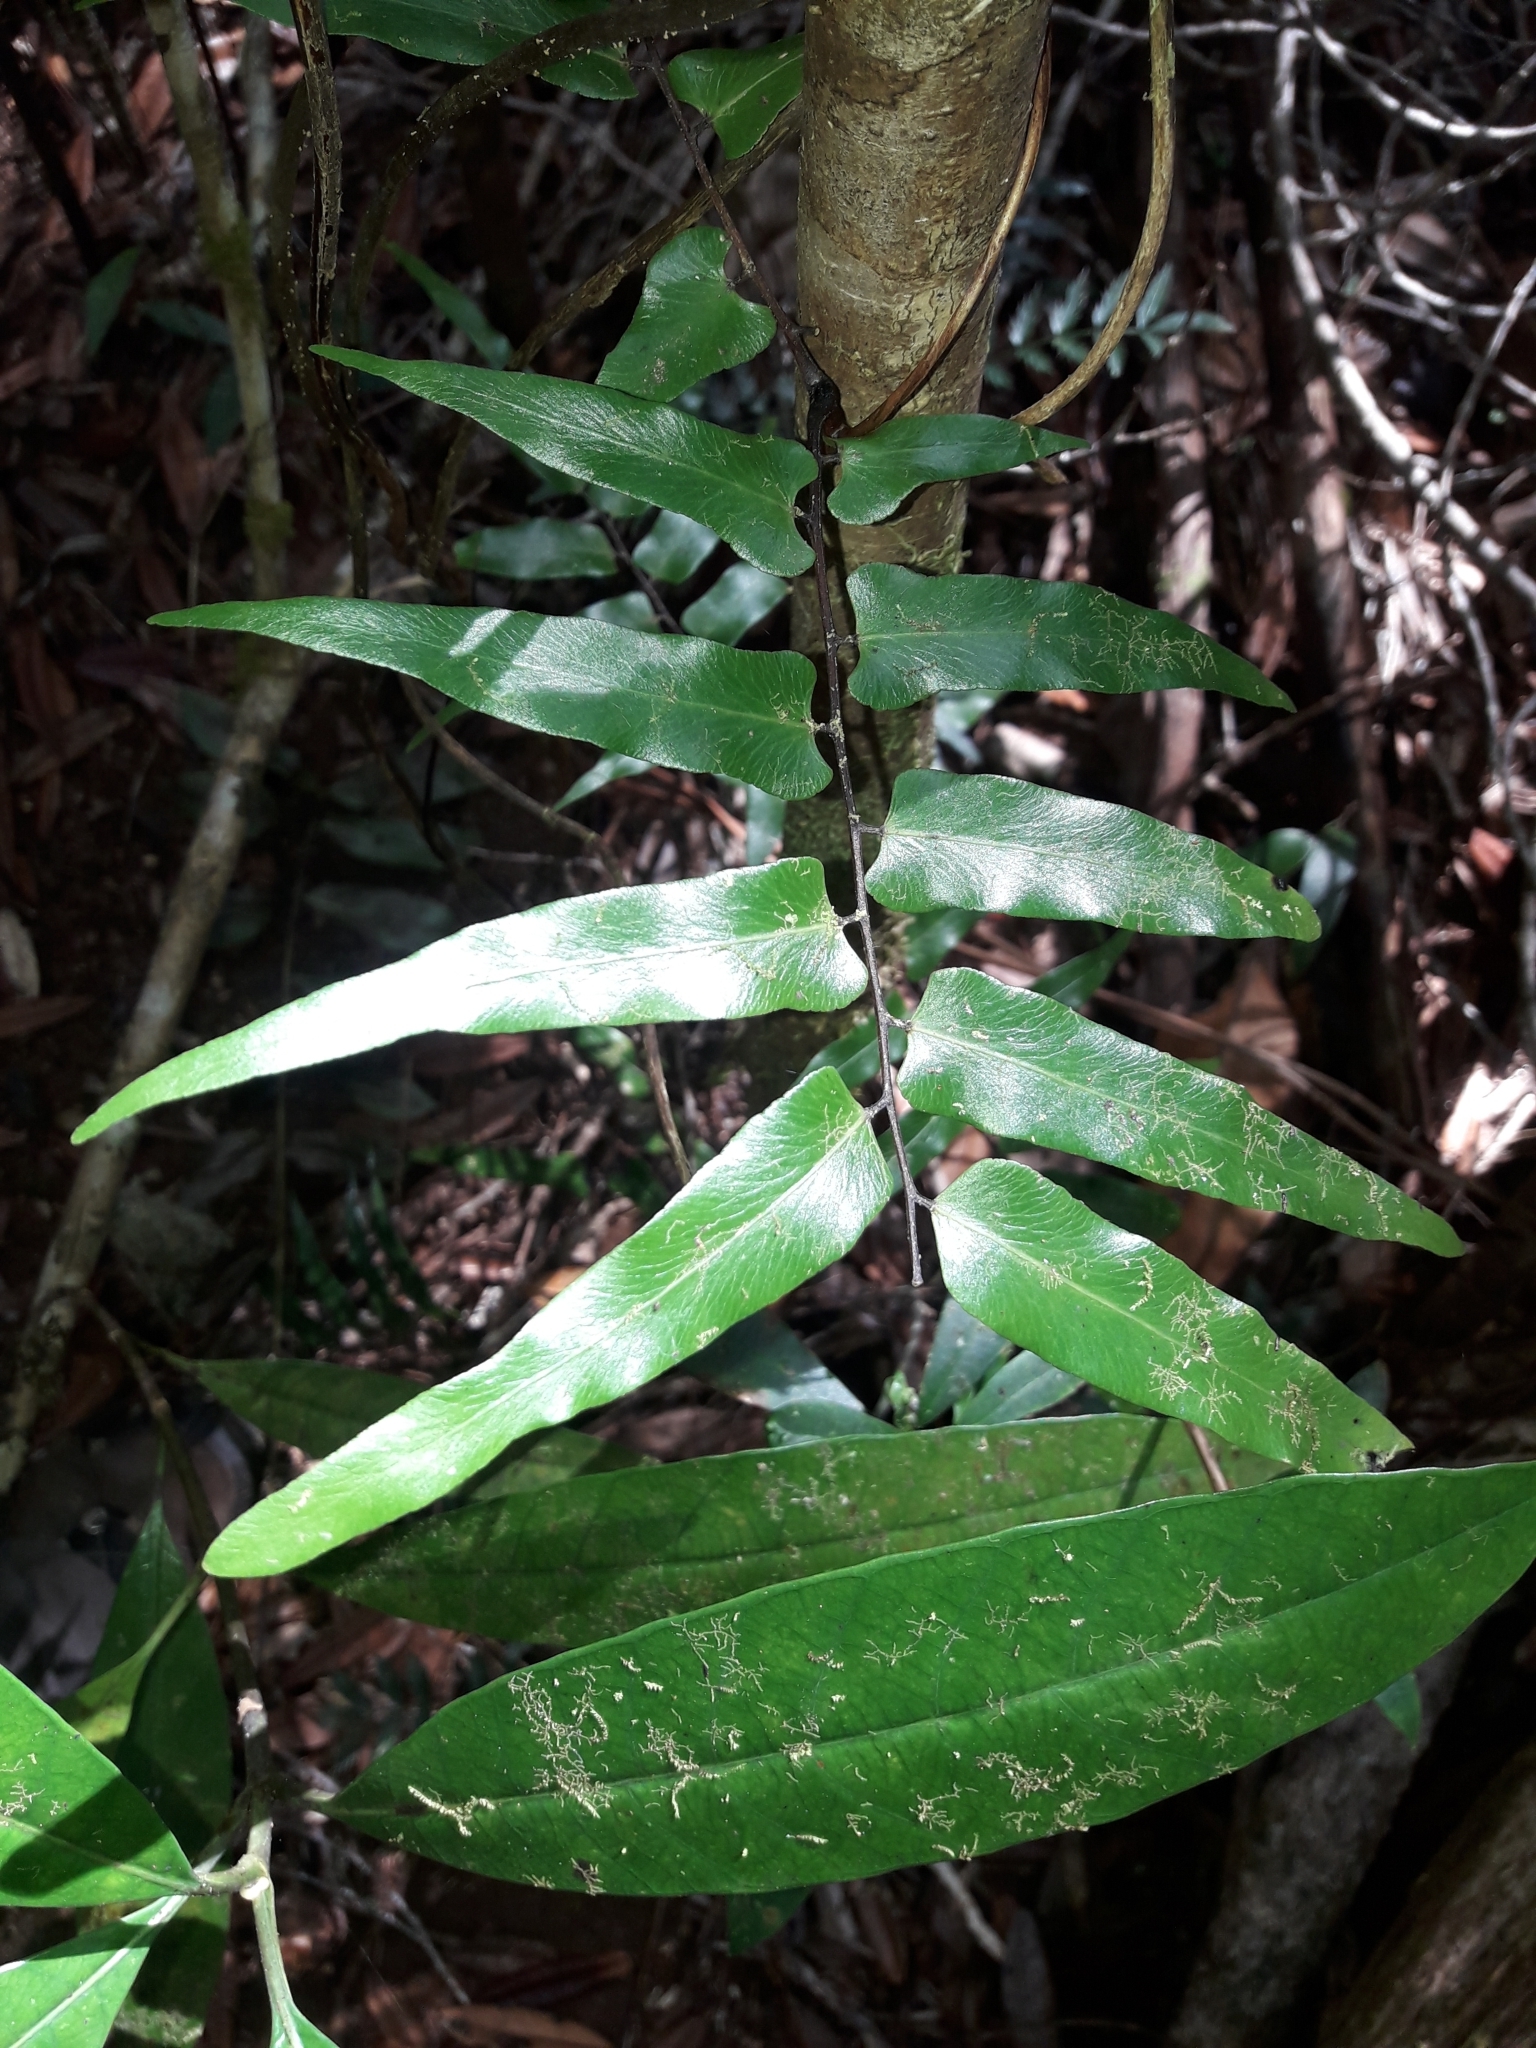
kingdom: Plantae
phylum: Tracheophyta
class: Polypodiopsida
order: Schizaeales
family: Lygodiaceae
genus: Lygodium
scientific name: Lygodium reticulatum
